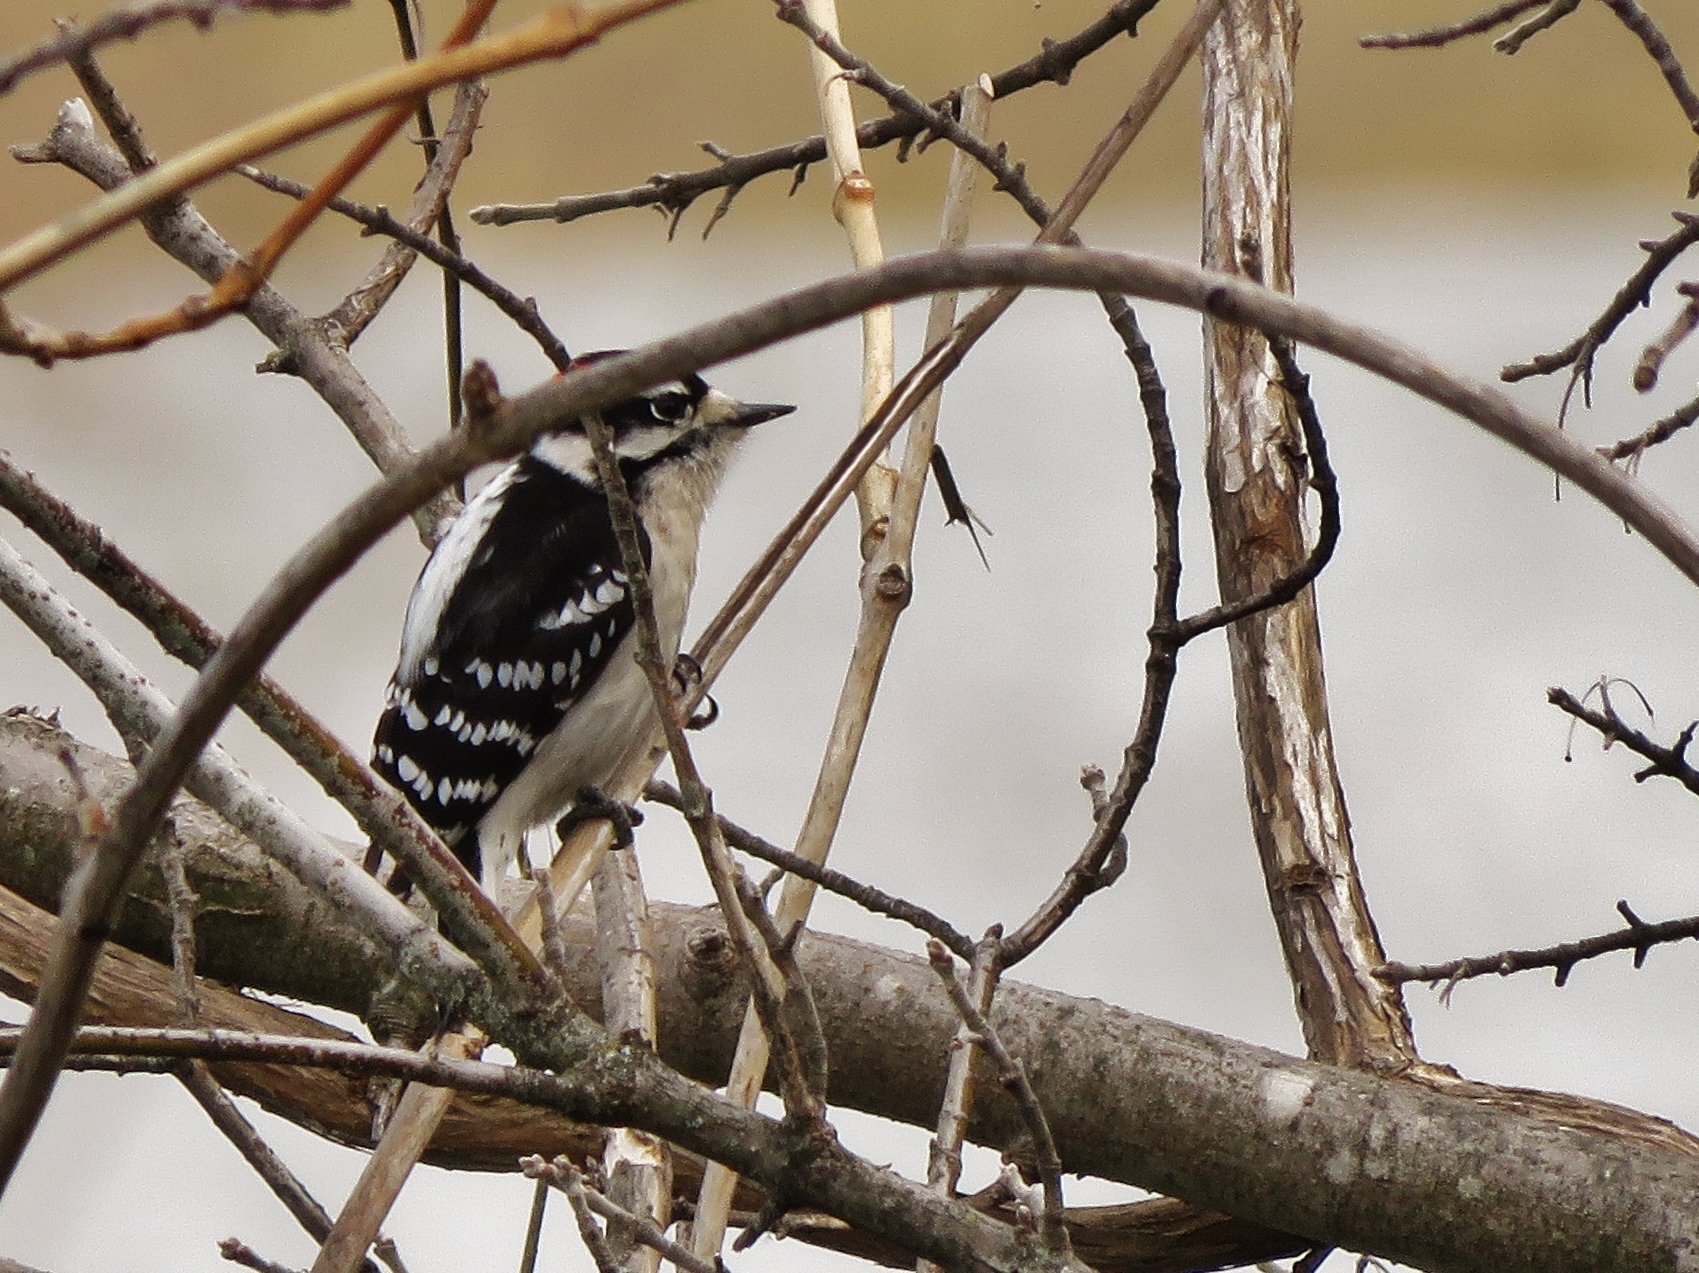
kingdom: Animalia
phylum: Chordata
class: Aves
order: Piciformes
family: Picidae
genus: Dryobates
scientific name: Dryobates pubescens
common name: Downy woodpecker
